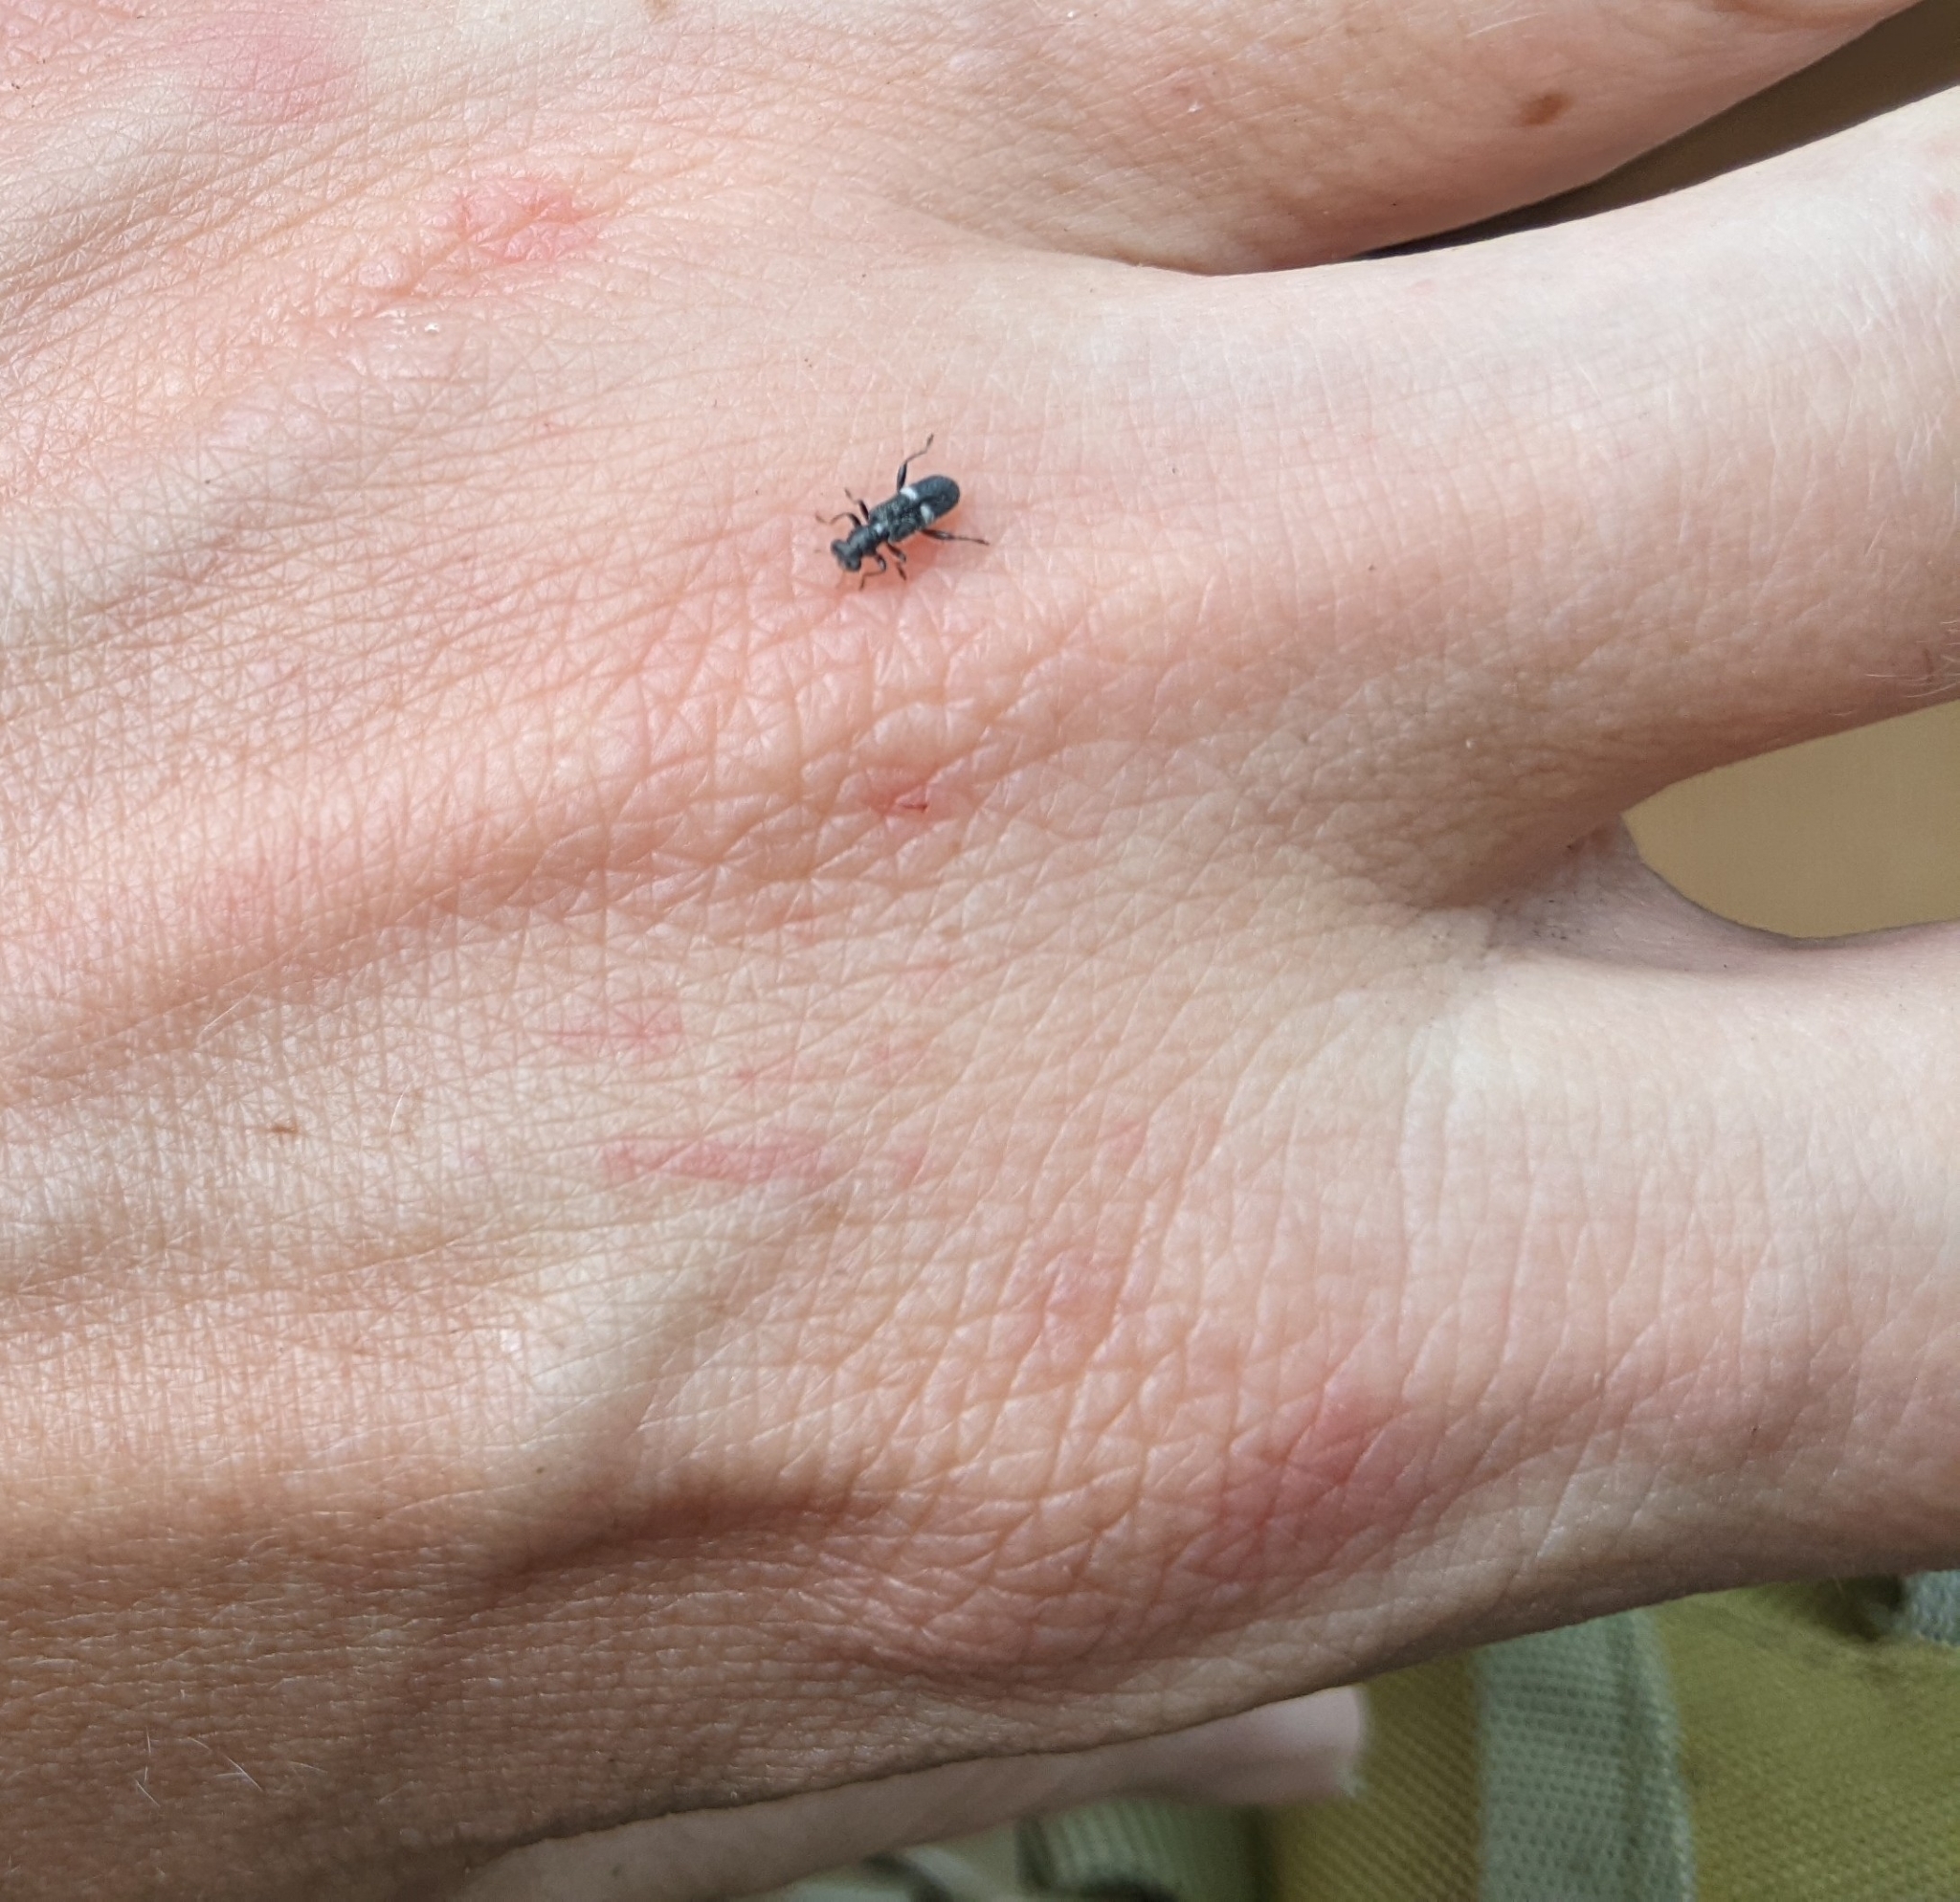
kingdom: Animalia
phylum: Arthropoda
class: Insecta
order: Coleoptera
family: Cleridae
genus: Phyllobaenus
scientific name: Phyllobaenus unifasciatus
